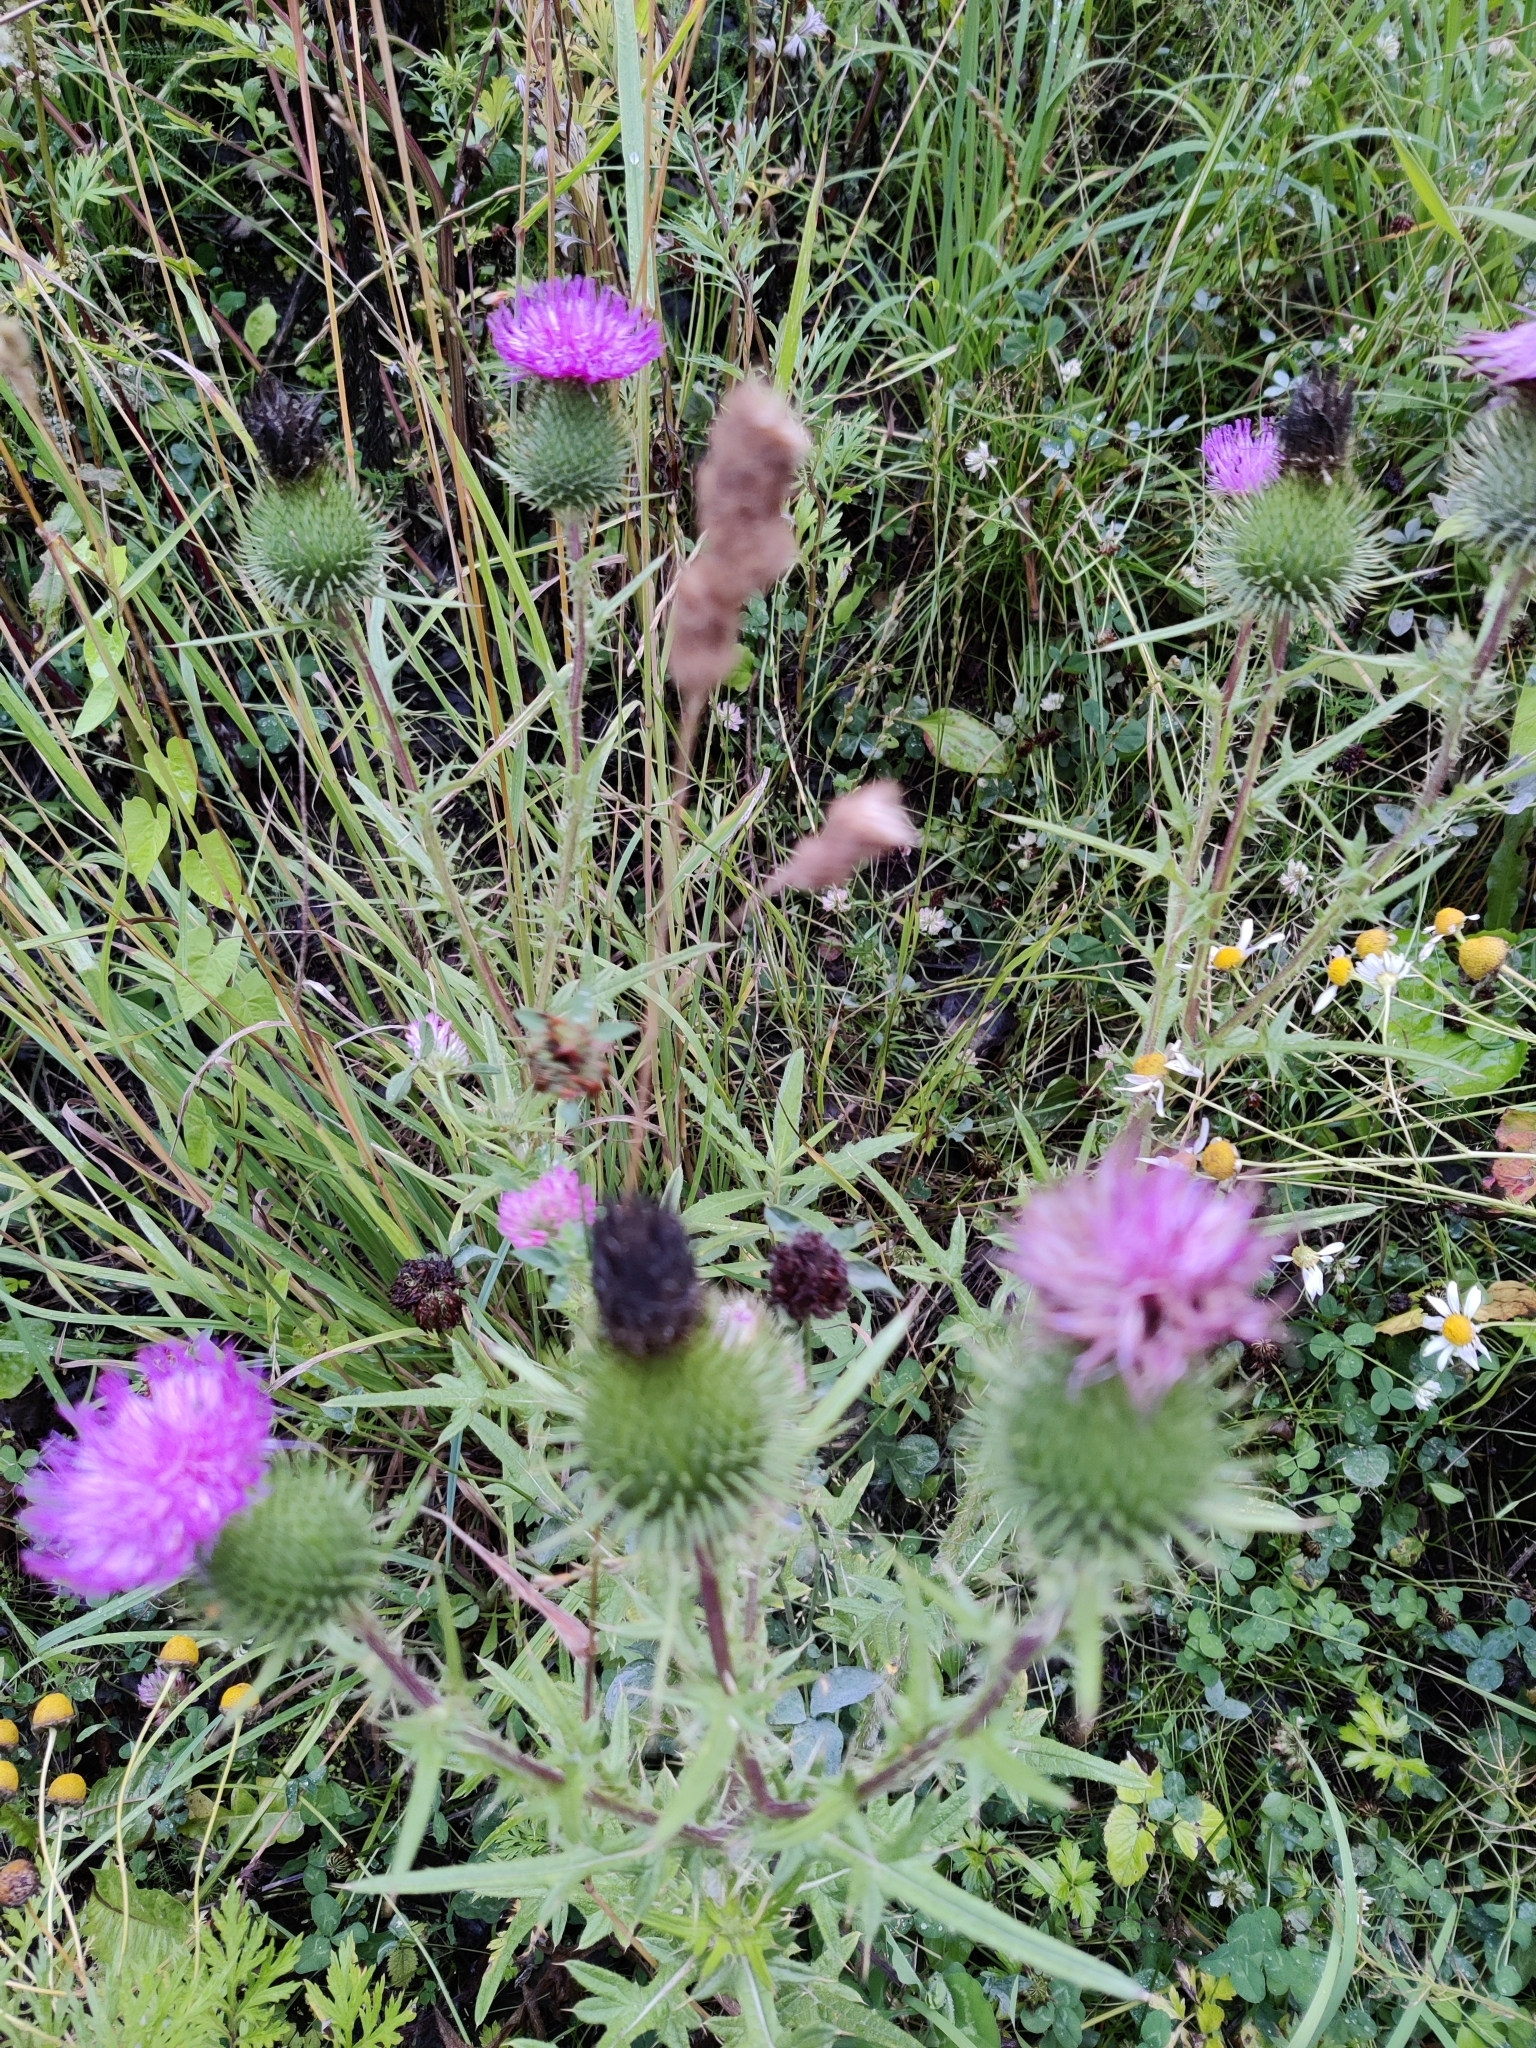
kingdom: Plantae
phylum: Tracheophyta
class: Magnoliopsida
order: Asterales
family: Asteraceae
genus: Cirsium
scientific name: Cirsium vulgare
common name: Bull thistle
